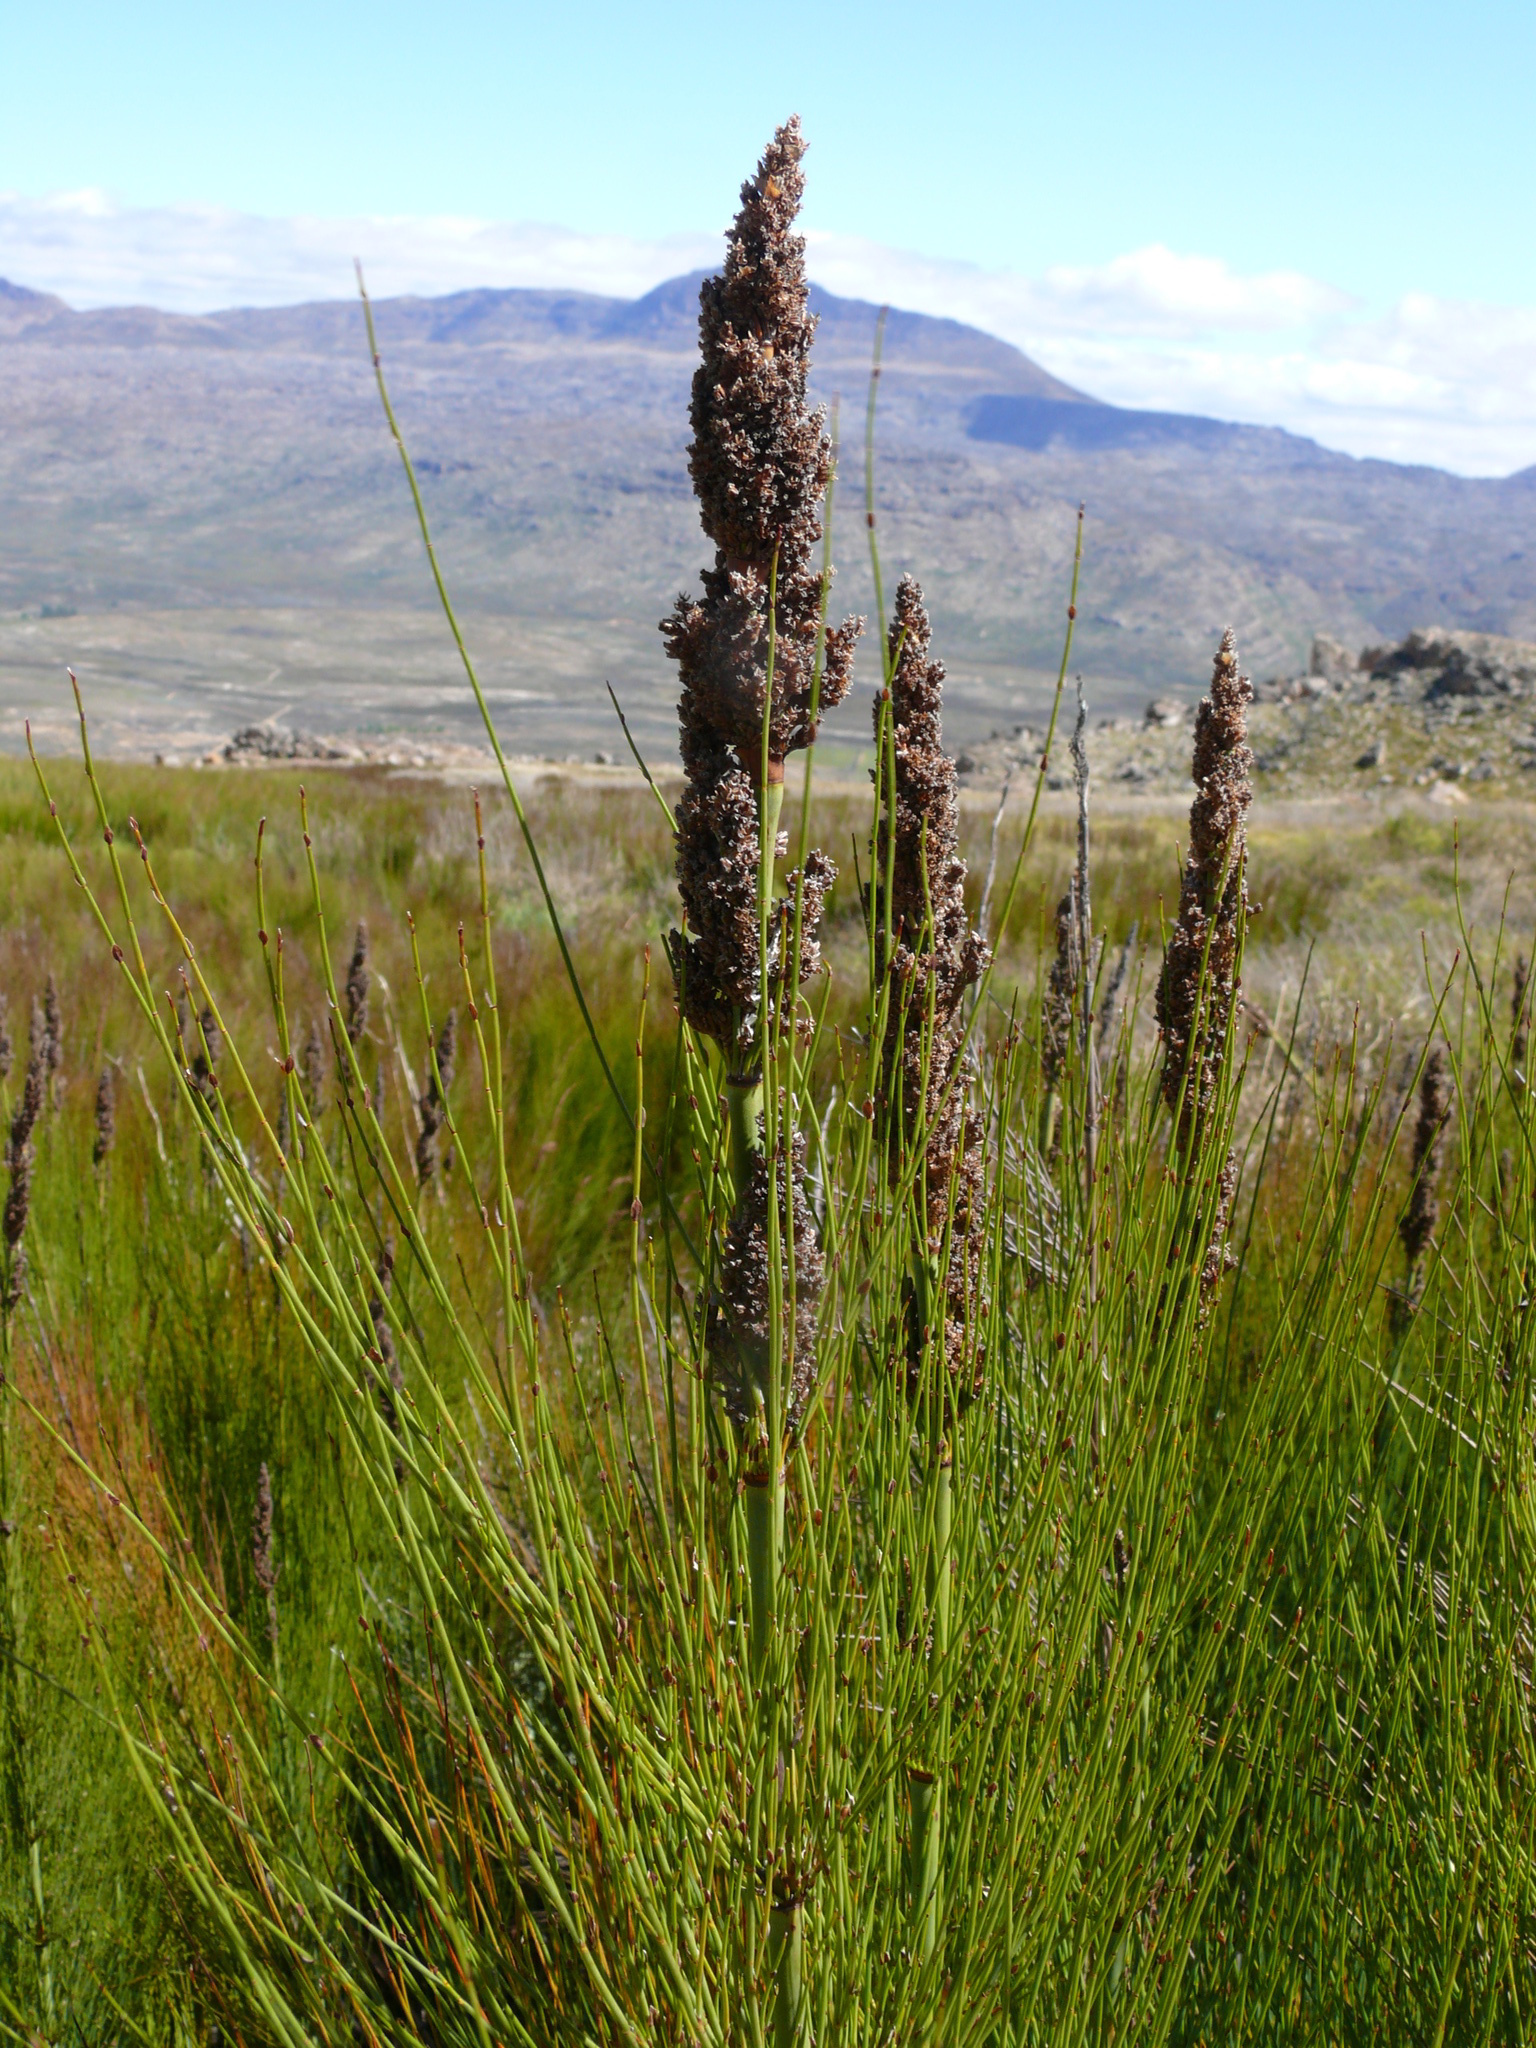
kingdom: Plantae
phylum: Tracheophyta
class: Liliopsida
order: Poales
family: Restionaceae
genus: Elegia
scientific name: Elegia capensis
